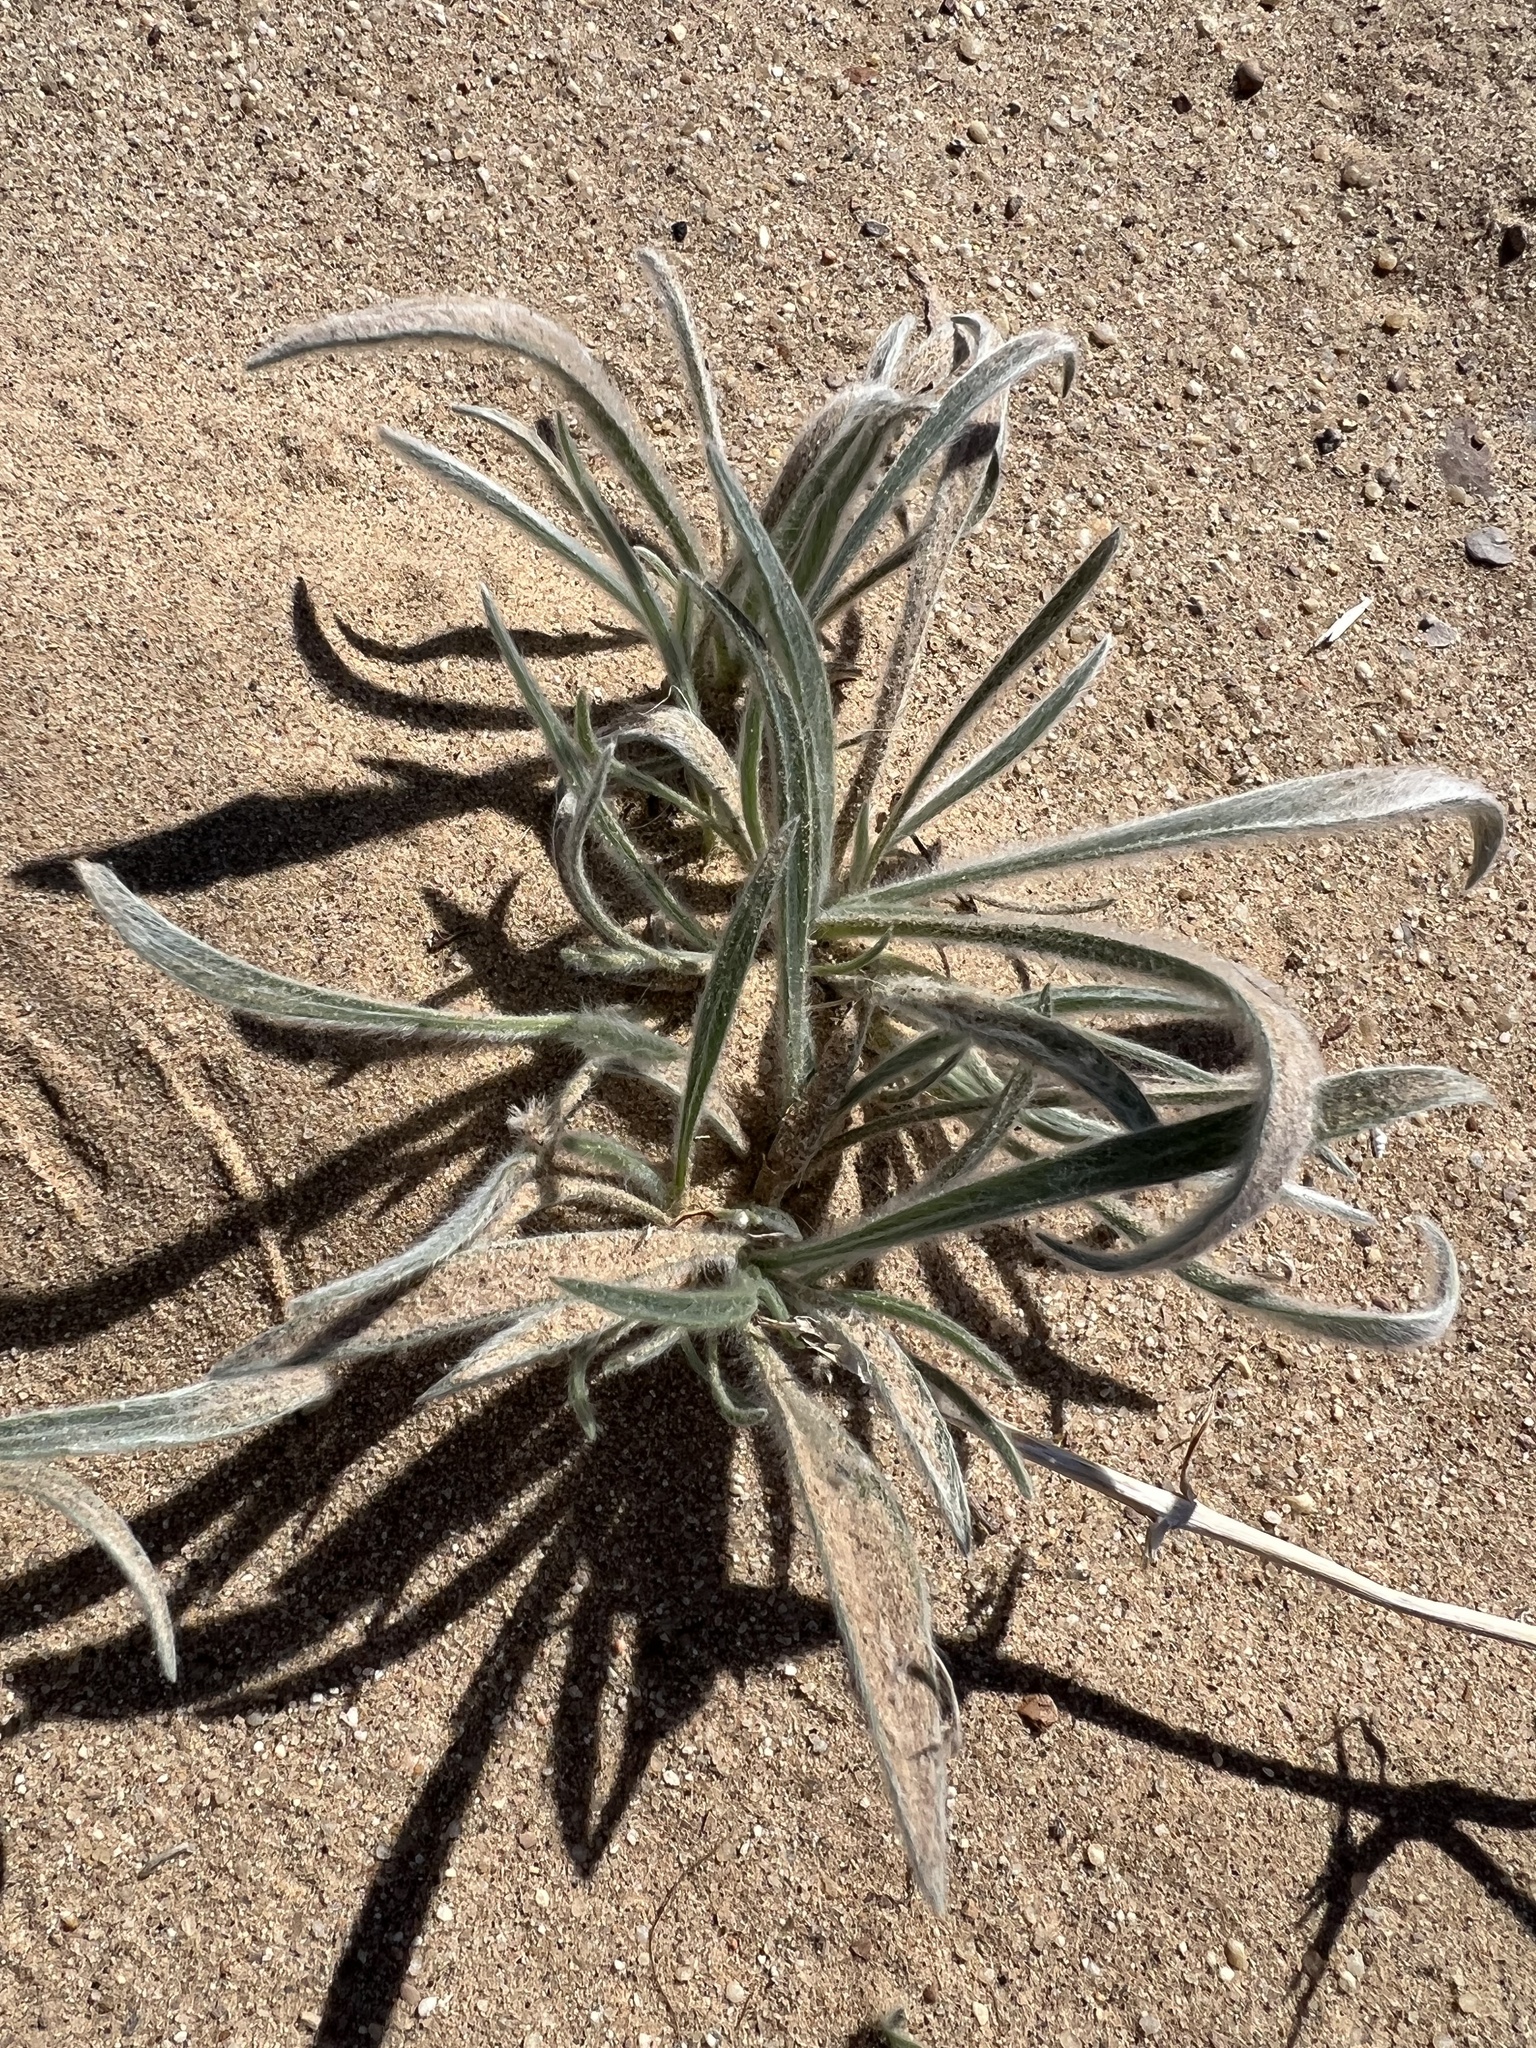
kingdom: Plantae
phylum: Tracheophyta
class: Magnoliopsida
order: Lamiales
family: Plantaginaceae
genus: Plantago
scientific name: Plantago ovata
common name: Blond plantain
